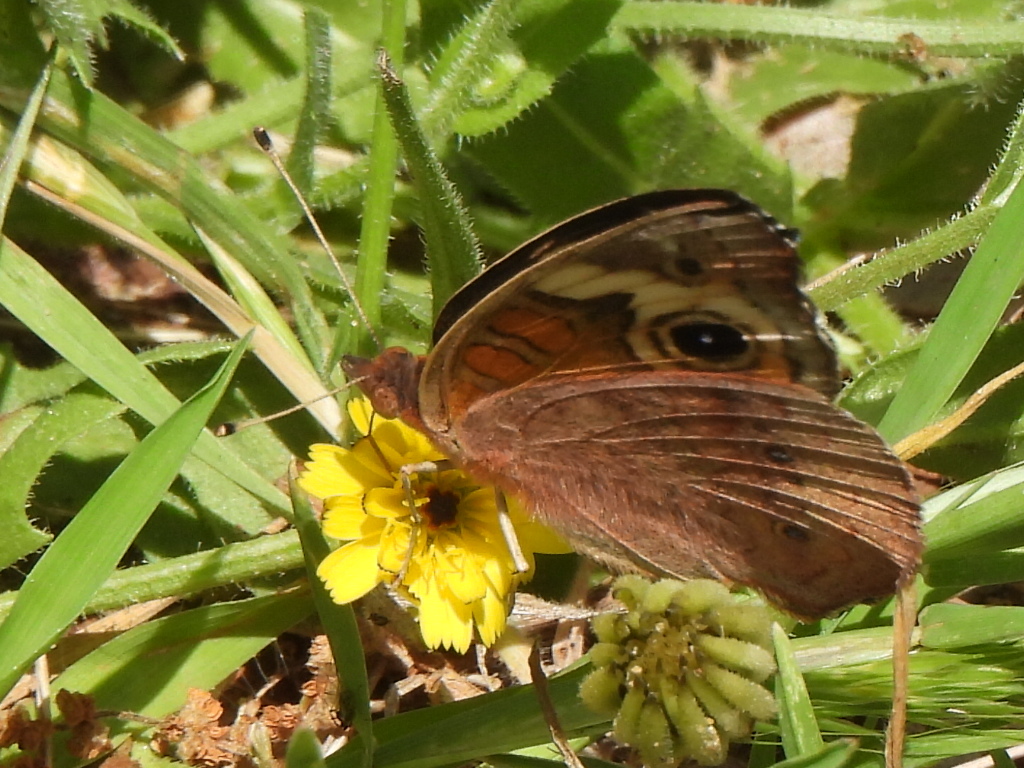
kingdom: Animalia
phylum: Arthropoda
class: Insecta
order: Lepidoptera
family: Nymphalidae
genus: Junonia
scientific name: Junonia coenia
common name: Common buckeye
